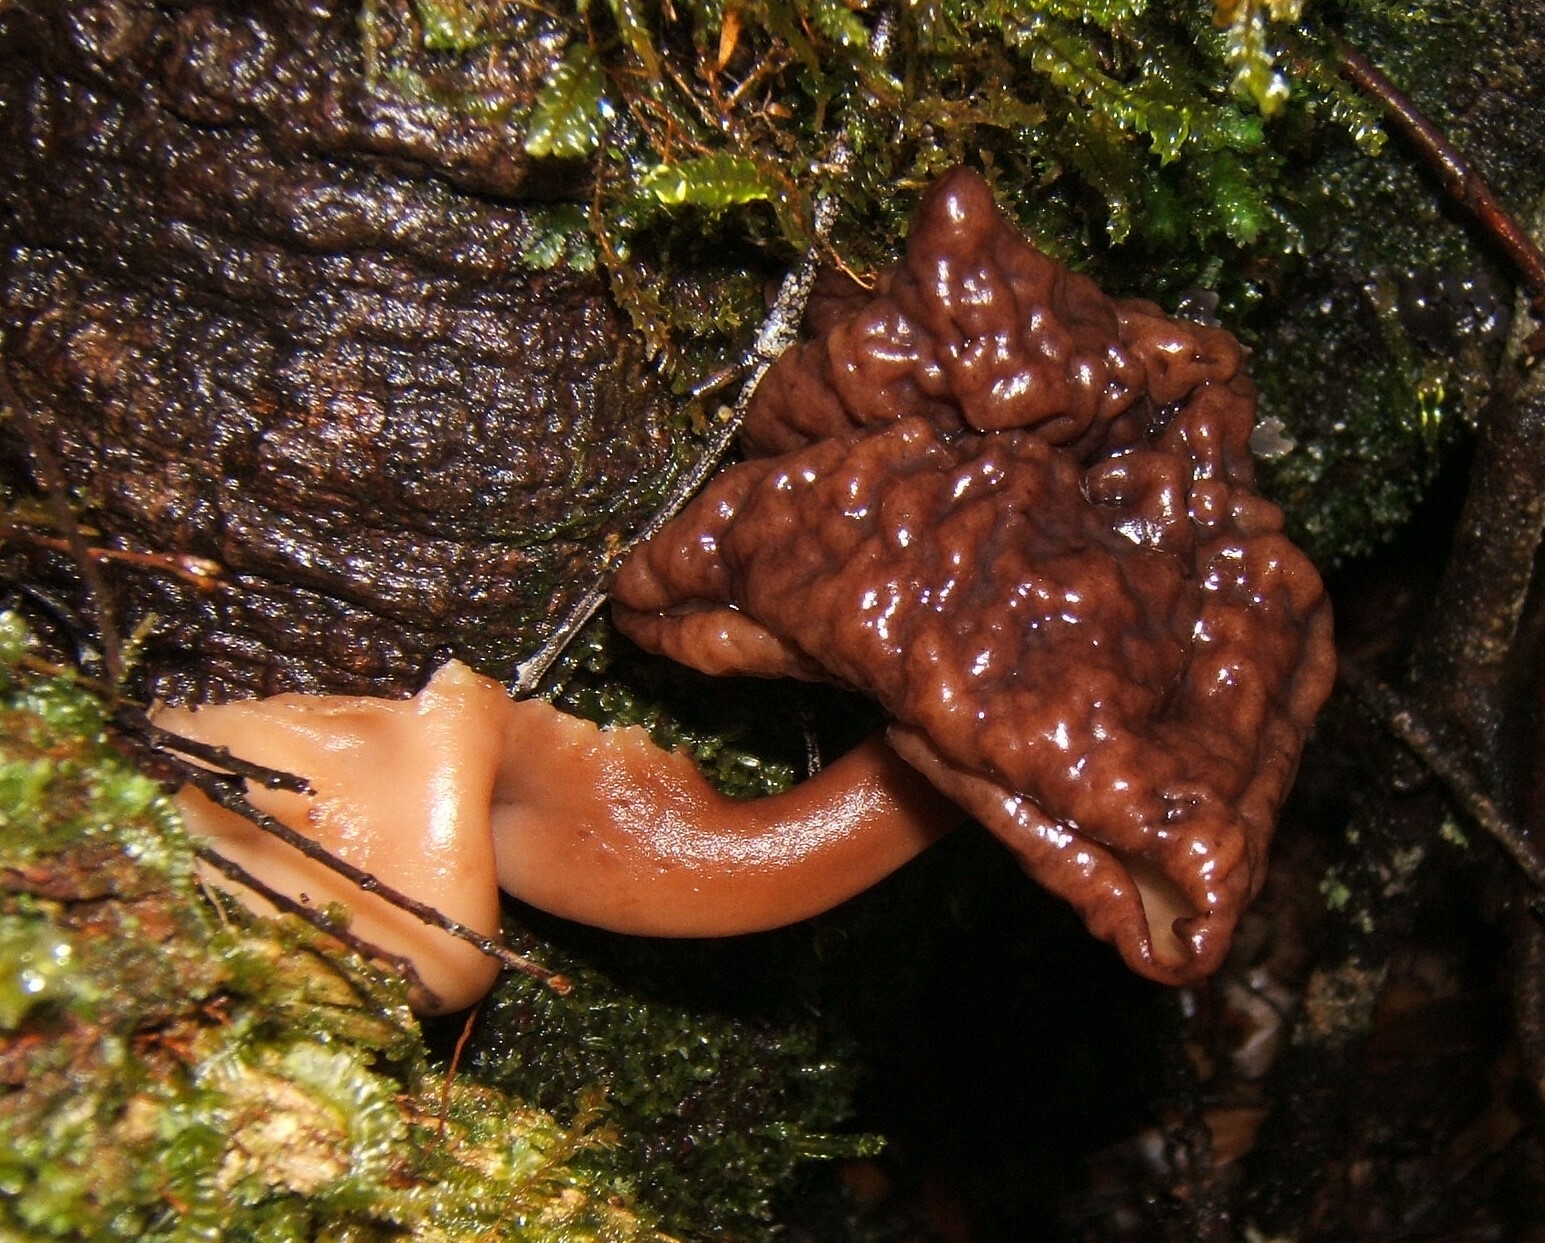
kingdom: Fungi
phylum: Ascomycota
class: Pezizomycetes
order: Pezizales
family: Discinaceae
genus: Gyromitra
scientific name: Gyromitra tasmanica
